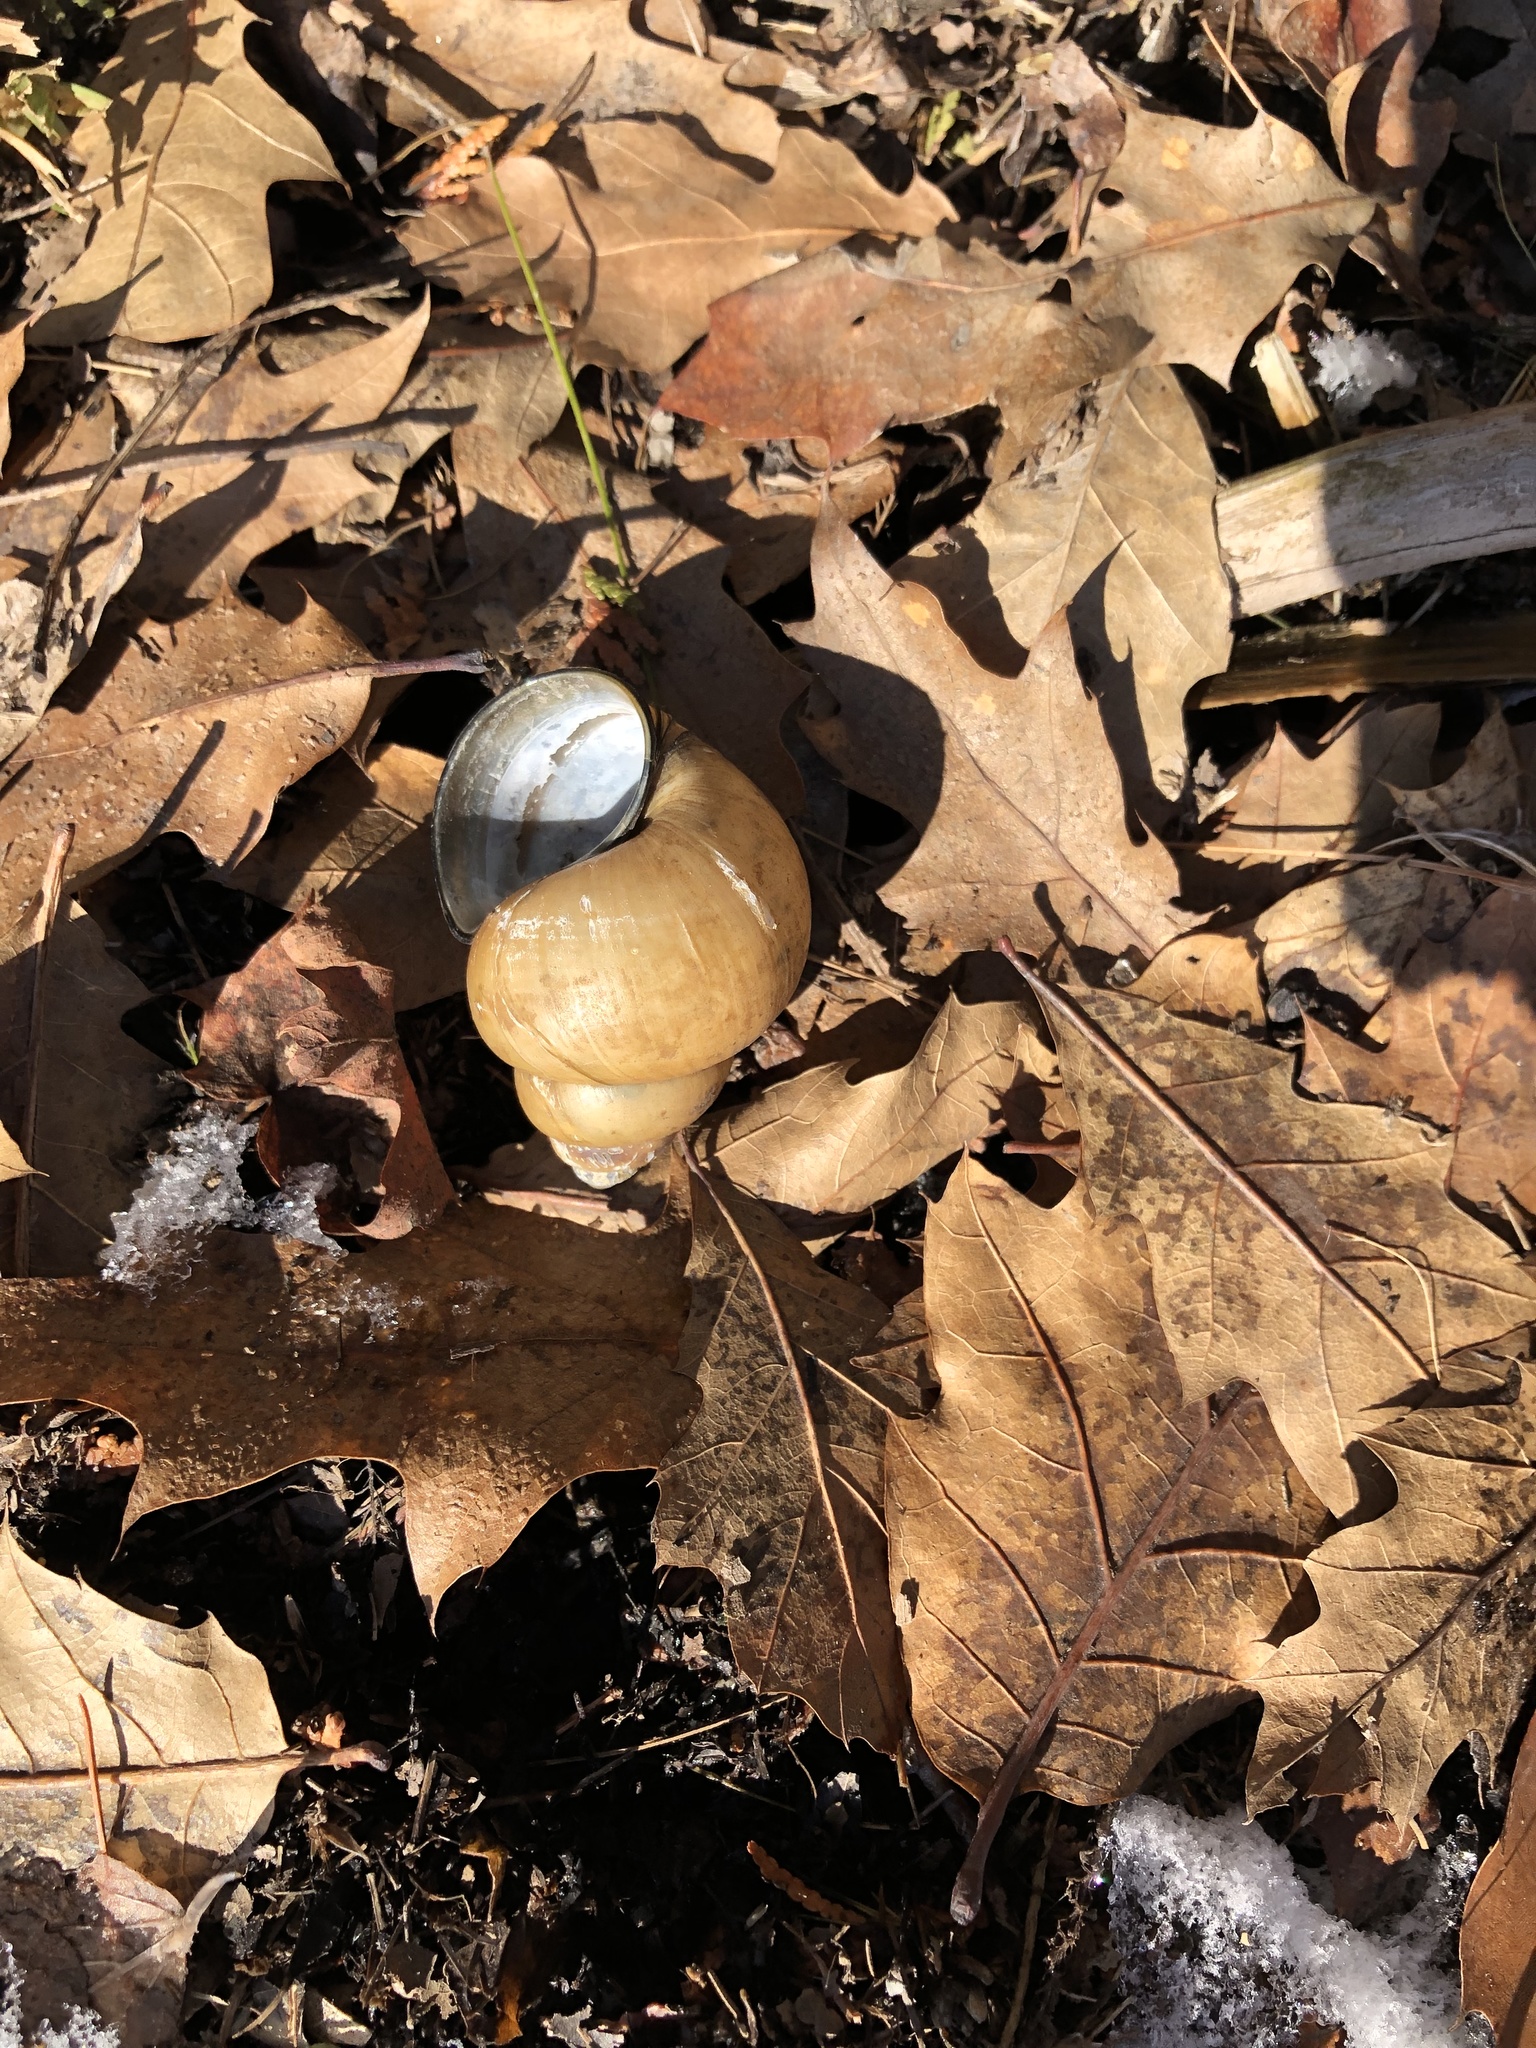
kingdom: Animalia
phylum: Mollusca
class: Gastropoda
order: Architaenioglossa
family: Viviparidae
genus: Cipangopaludina
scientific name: Cipangopaludina chinensis
